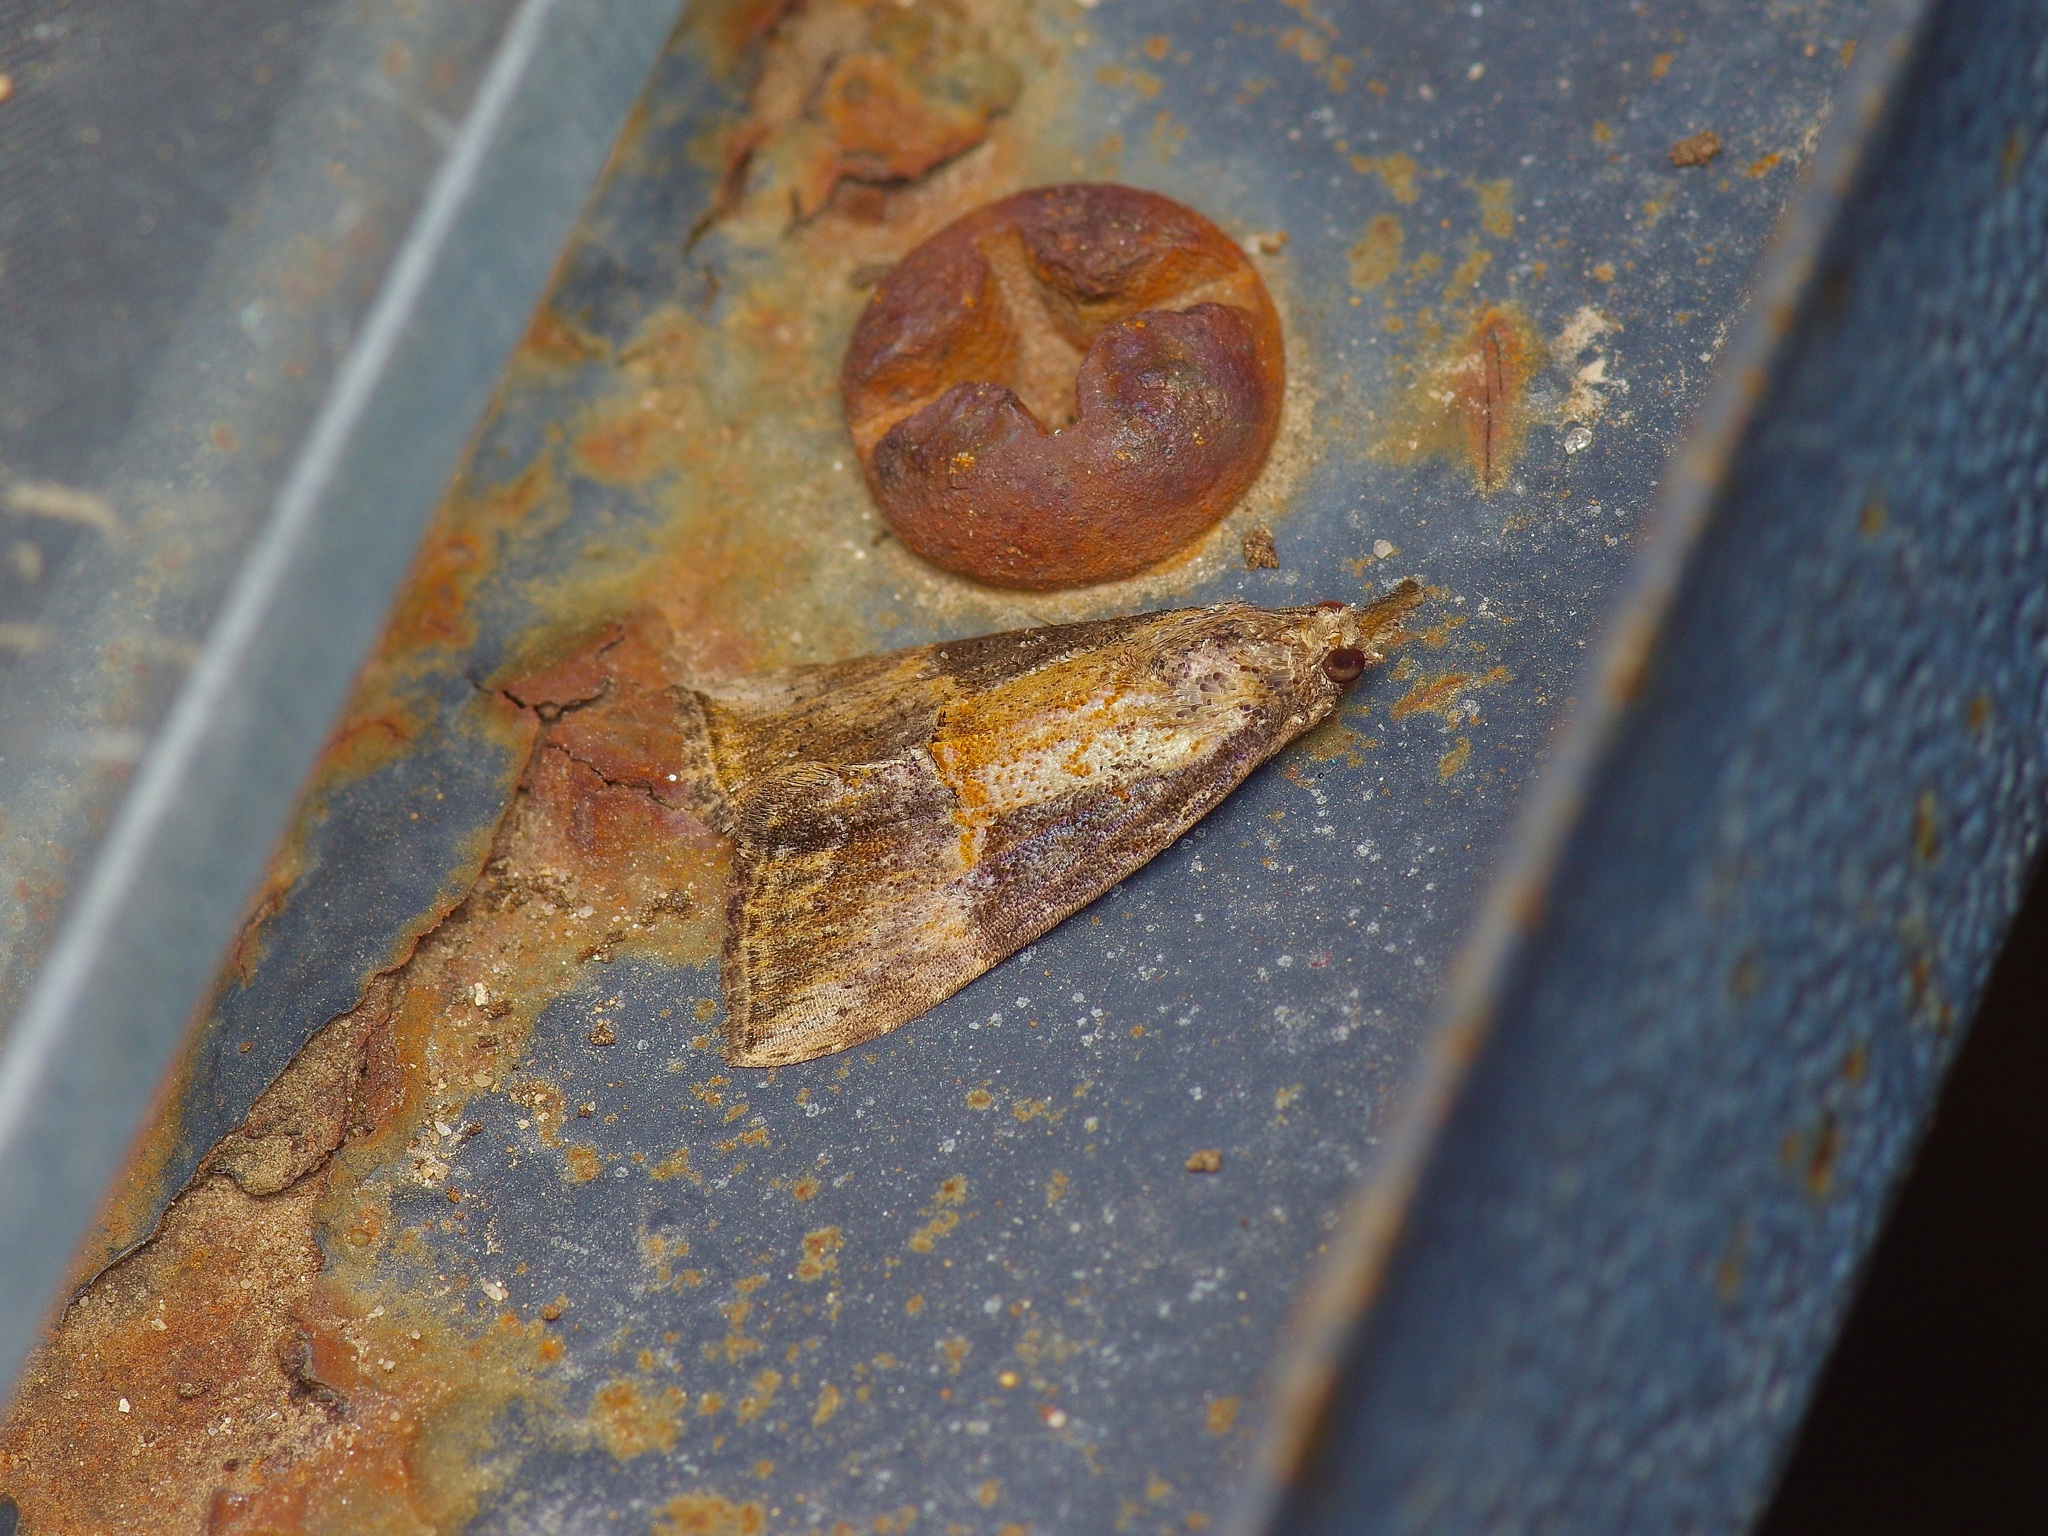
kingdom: Animalia
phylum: Arthropoda
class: Insecta
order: Lepidoptera
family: Erebidae
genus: Hypena
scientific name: Hypena scabra
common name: Green cloverworm
